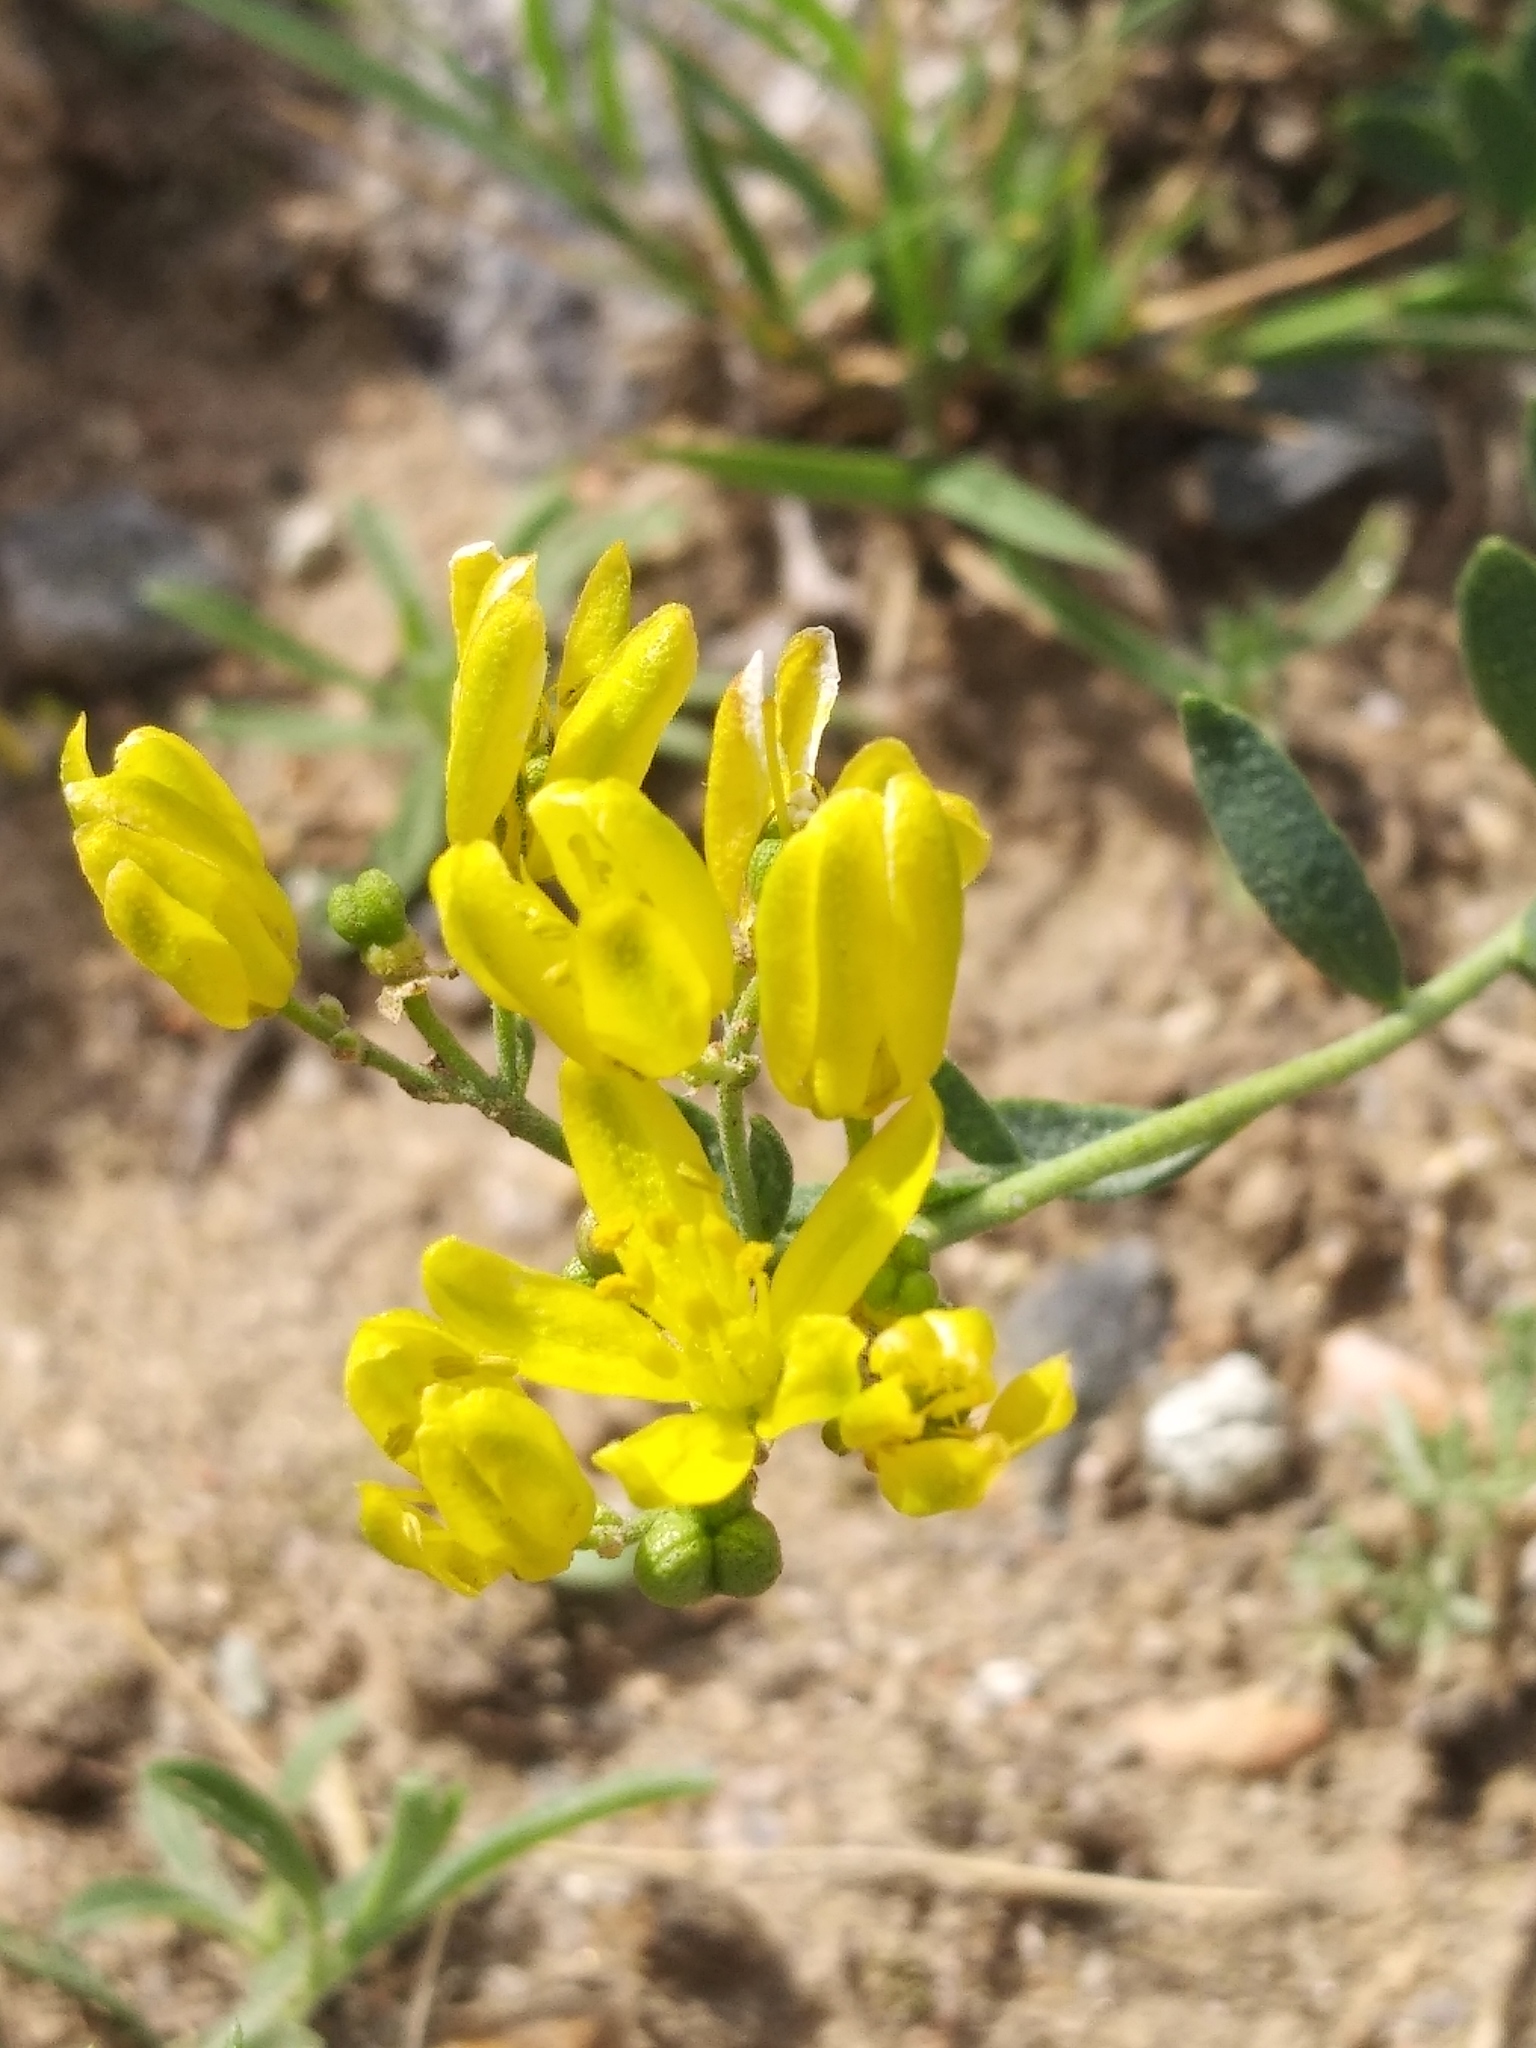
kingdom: Plantae
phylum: Tracheophyta
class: Magnoliopsida
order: Sapindales
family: Rutaceae
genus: Haplophyllum
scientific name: Haplophyllum dauricum
